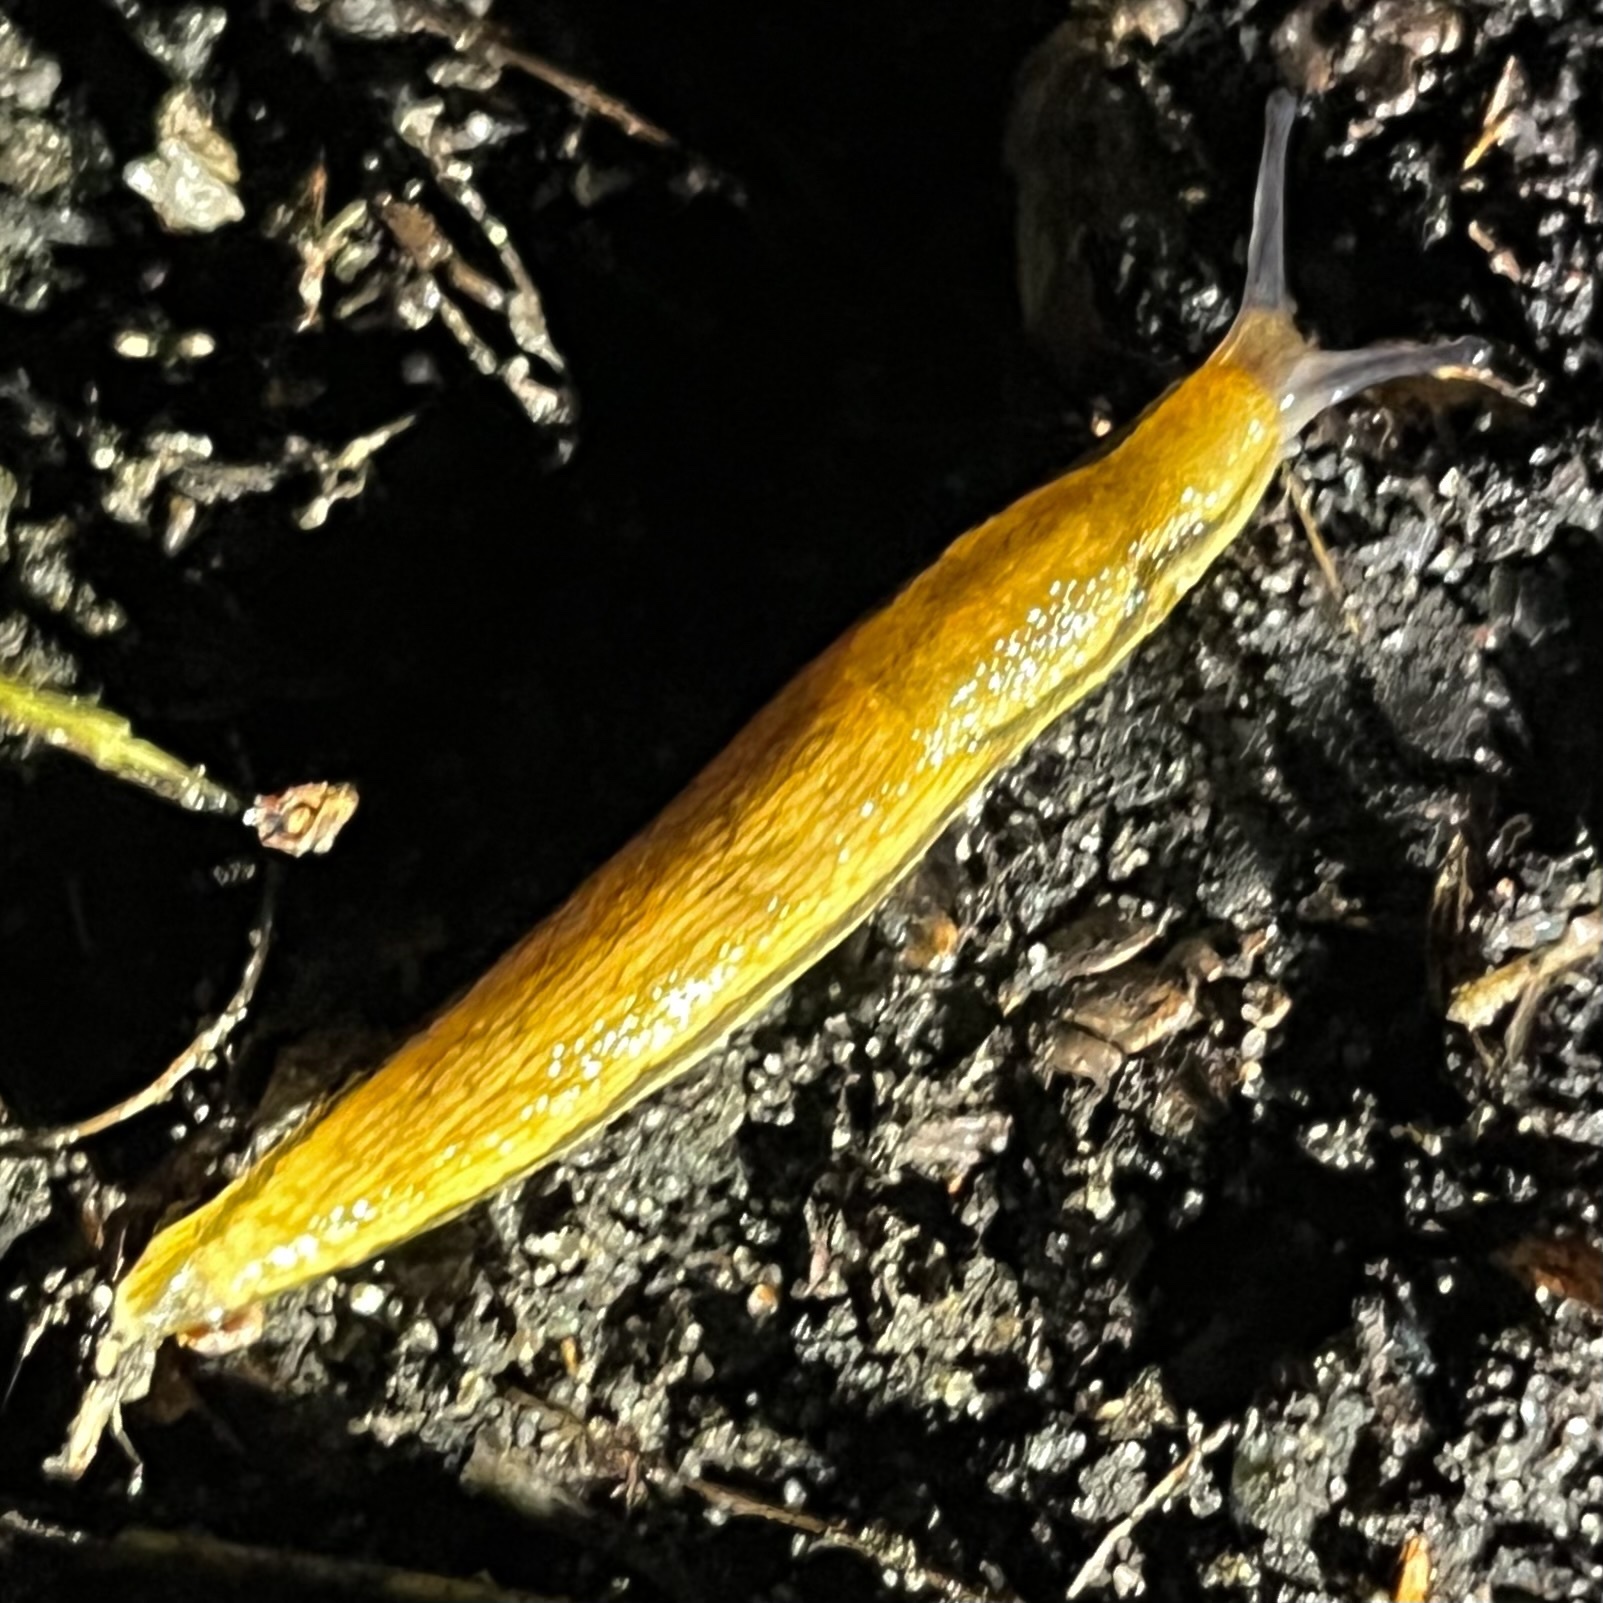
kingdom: Animalia
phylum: Mollusca
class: Gastropoda
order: Stylommatophora
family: Arionidae
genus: Arion
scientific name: Arion fuscus
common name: Northern dusky slug
